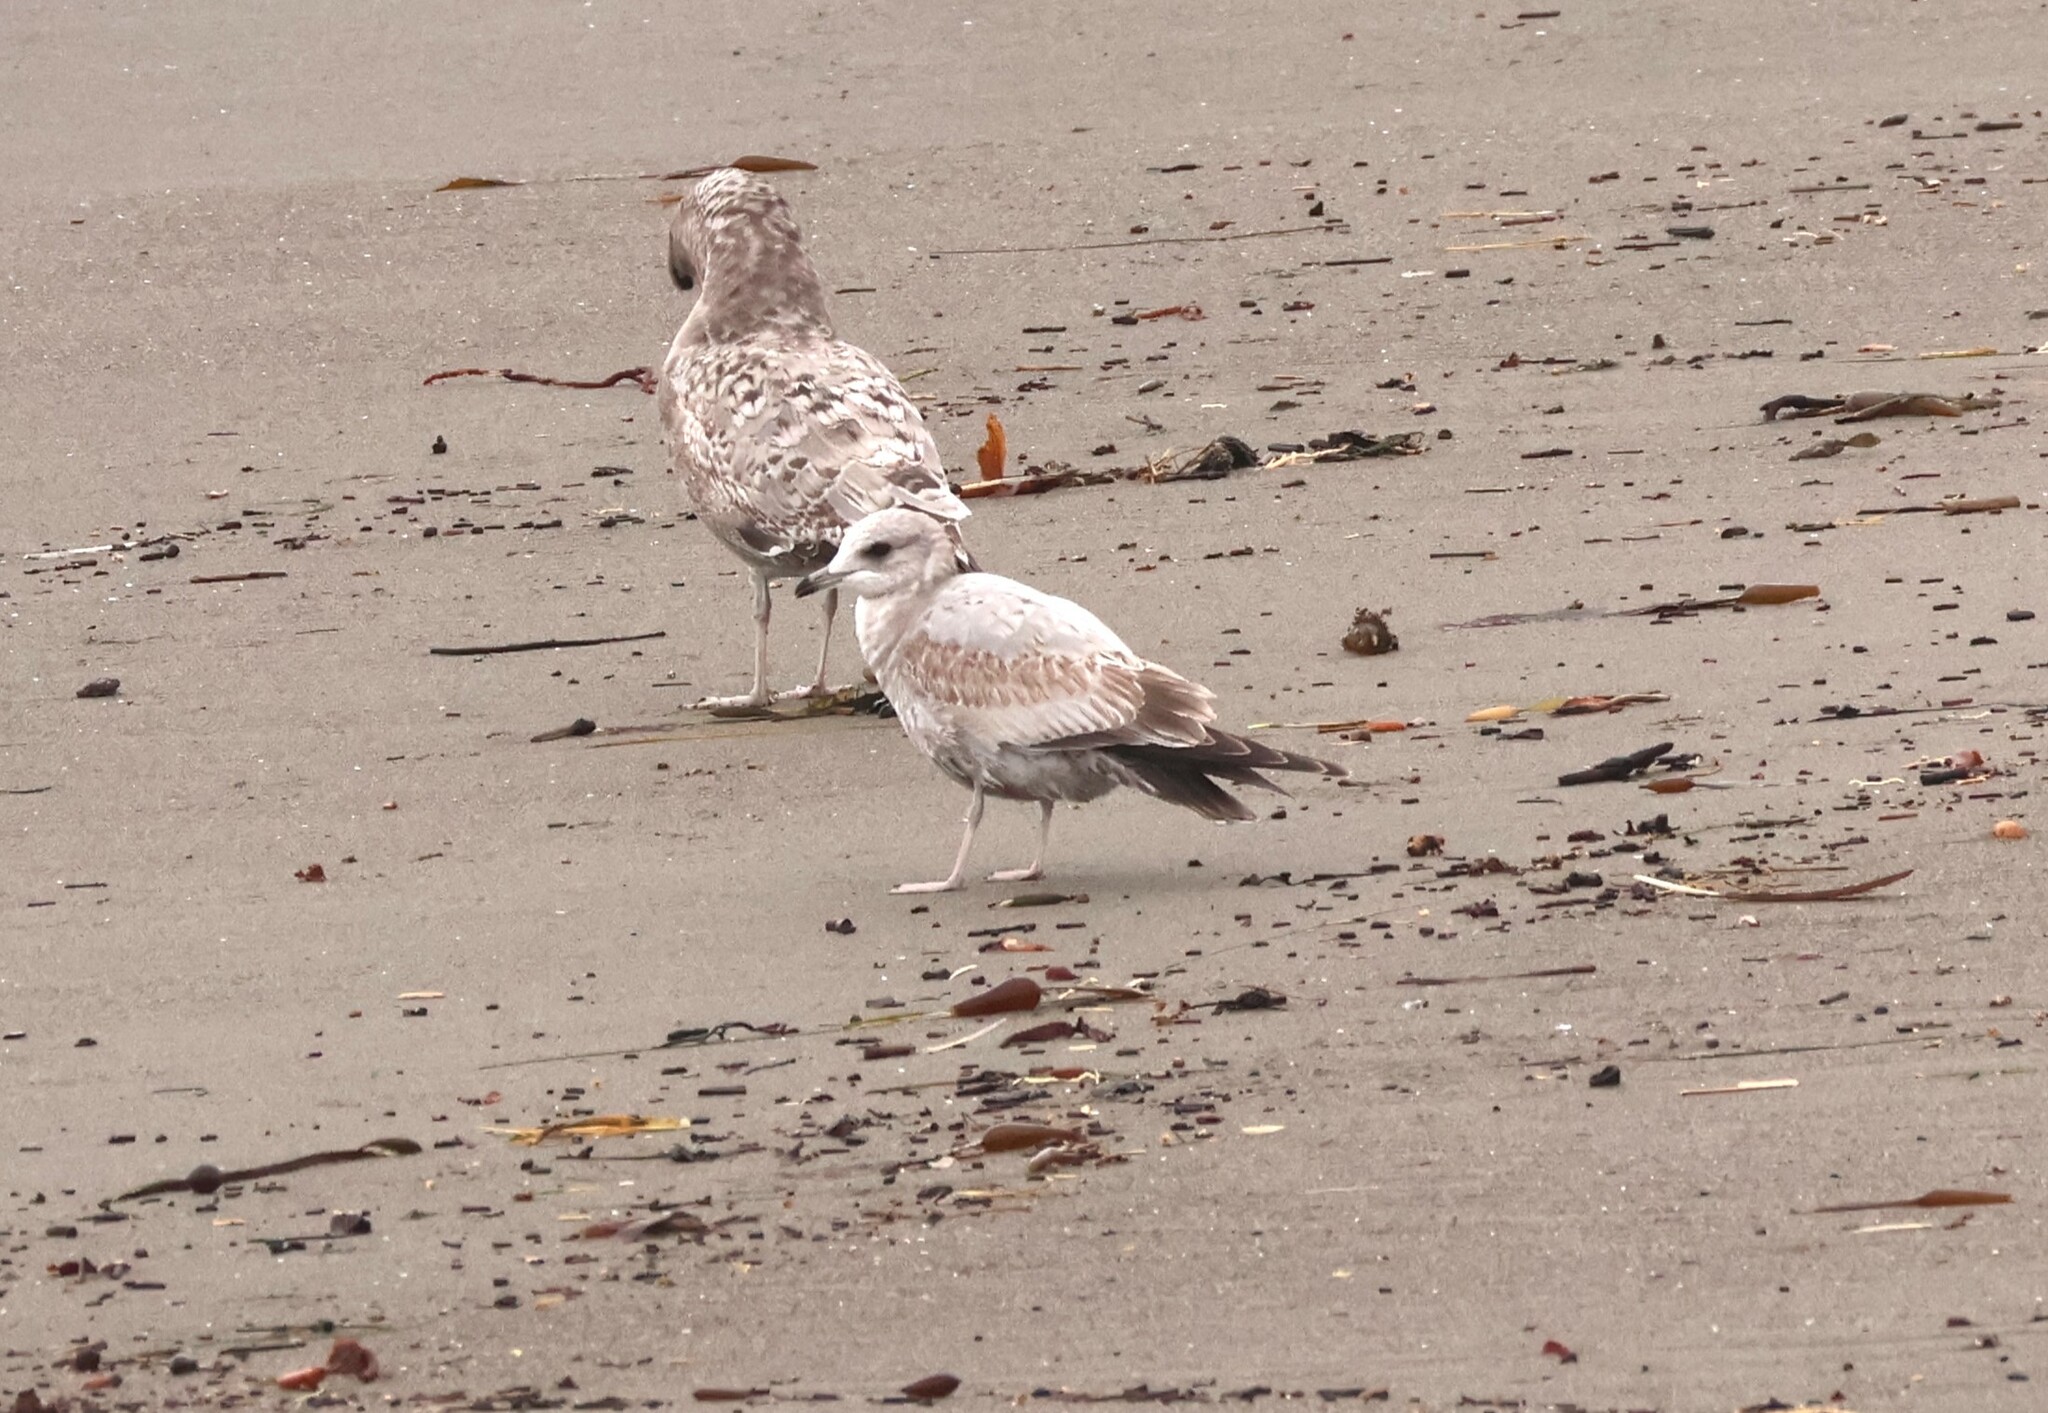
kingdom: Animalia
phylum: Chordata
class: Aves
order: Charadriiformes
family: Laridae
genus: Larus
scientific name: Larus delawarensis
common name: Ring-billed gull
